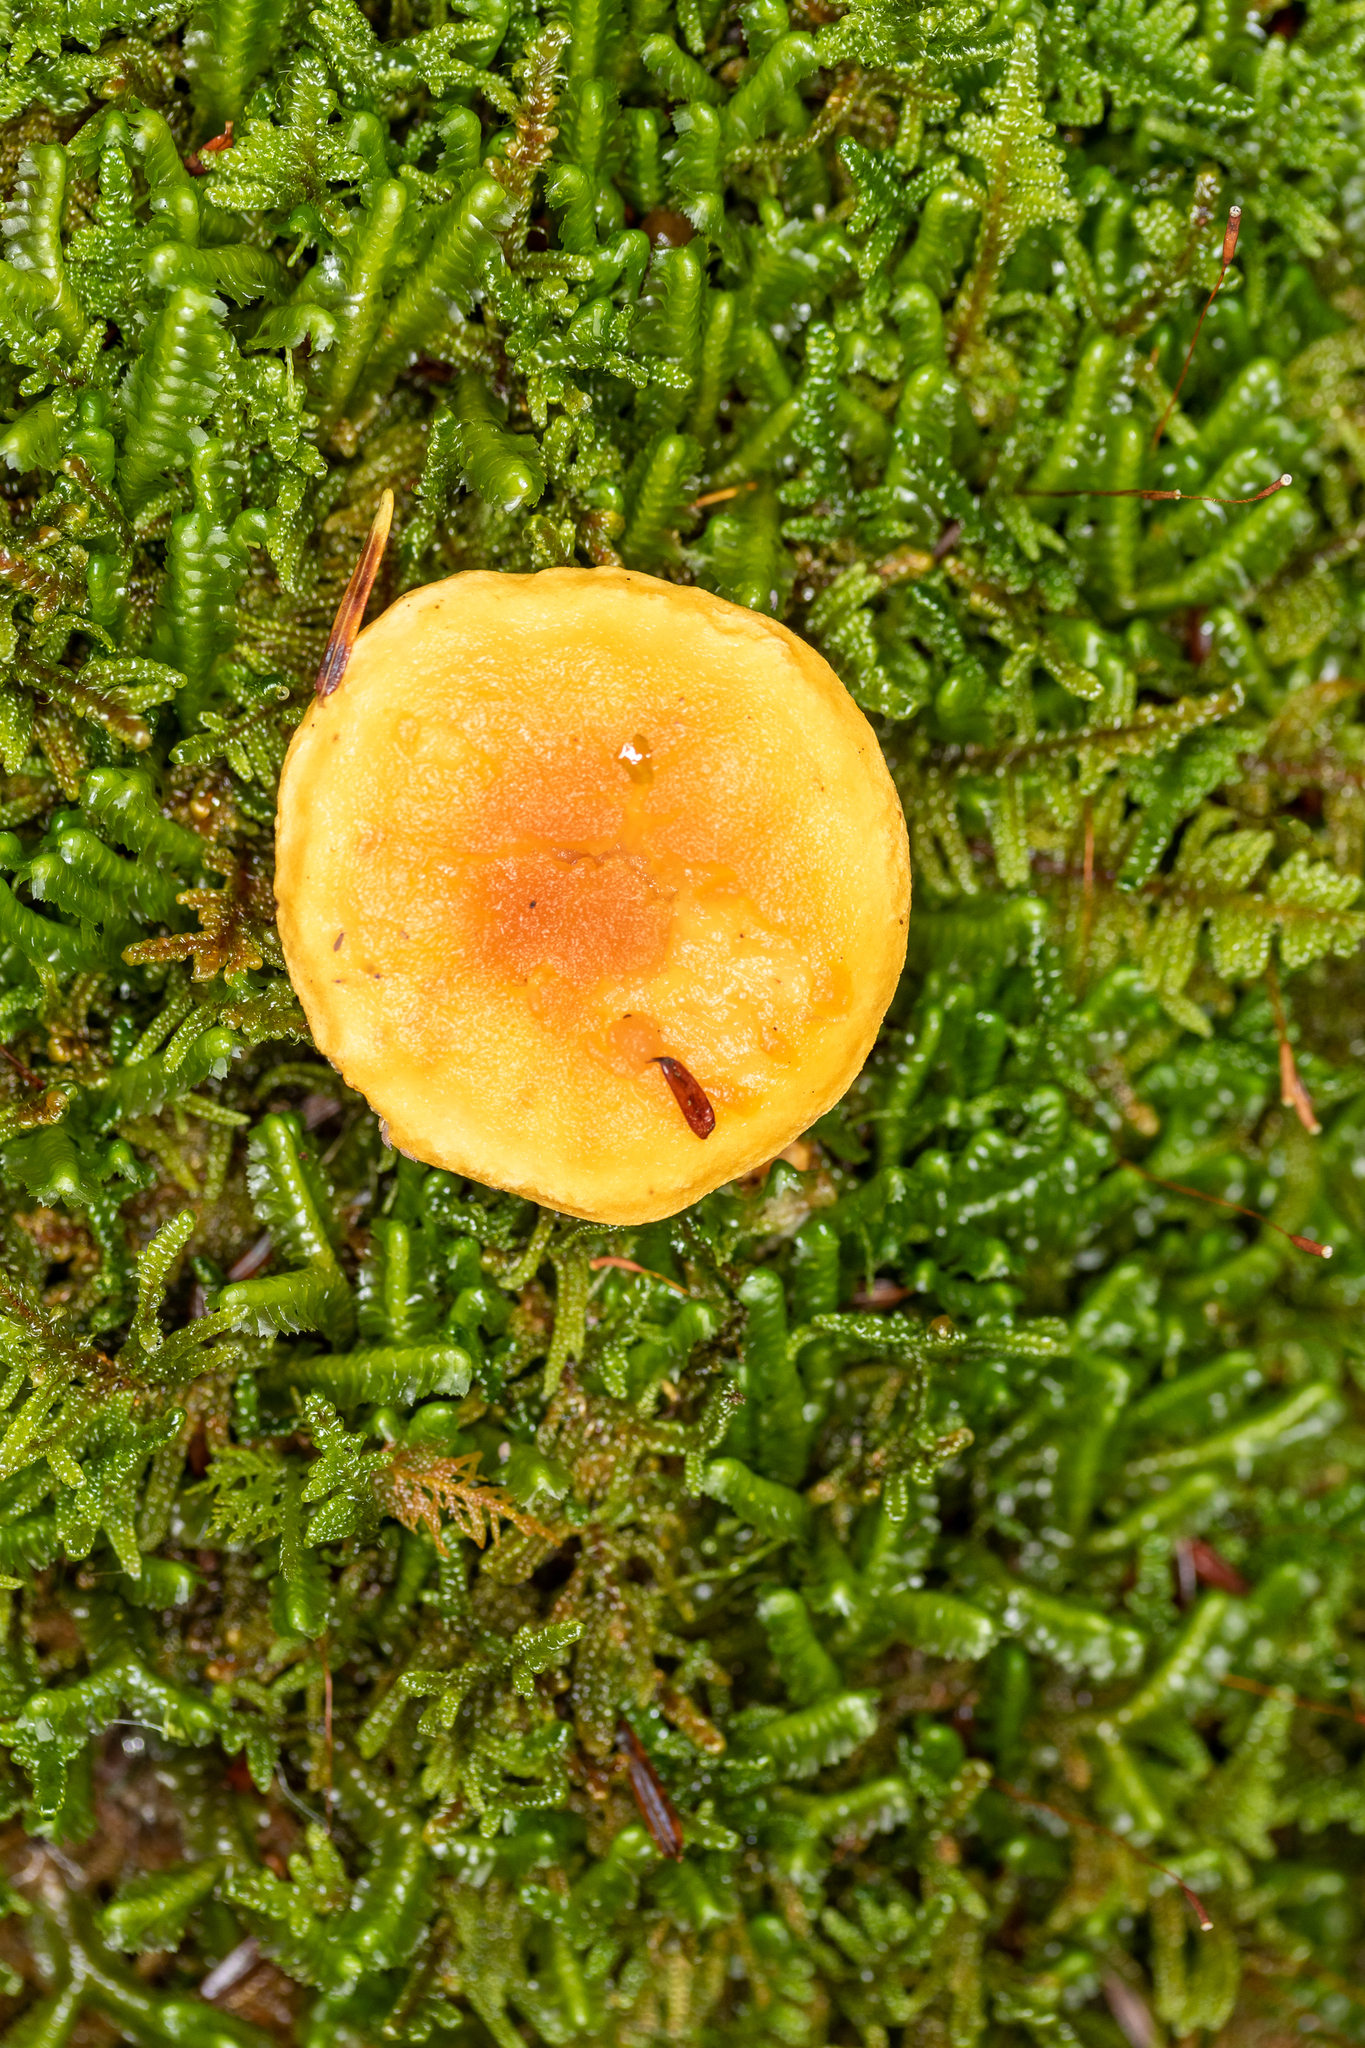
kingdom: Fungi
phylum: Basidiomycota
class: Agaricomycetes
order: Boletales
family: Hygrophoropsidaceae
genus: Hygrophoropsis
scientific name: Hygrophoropsis aurantiaca
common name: False chanterelle
